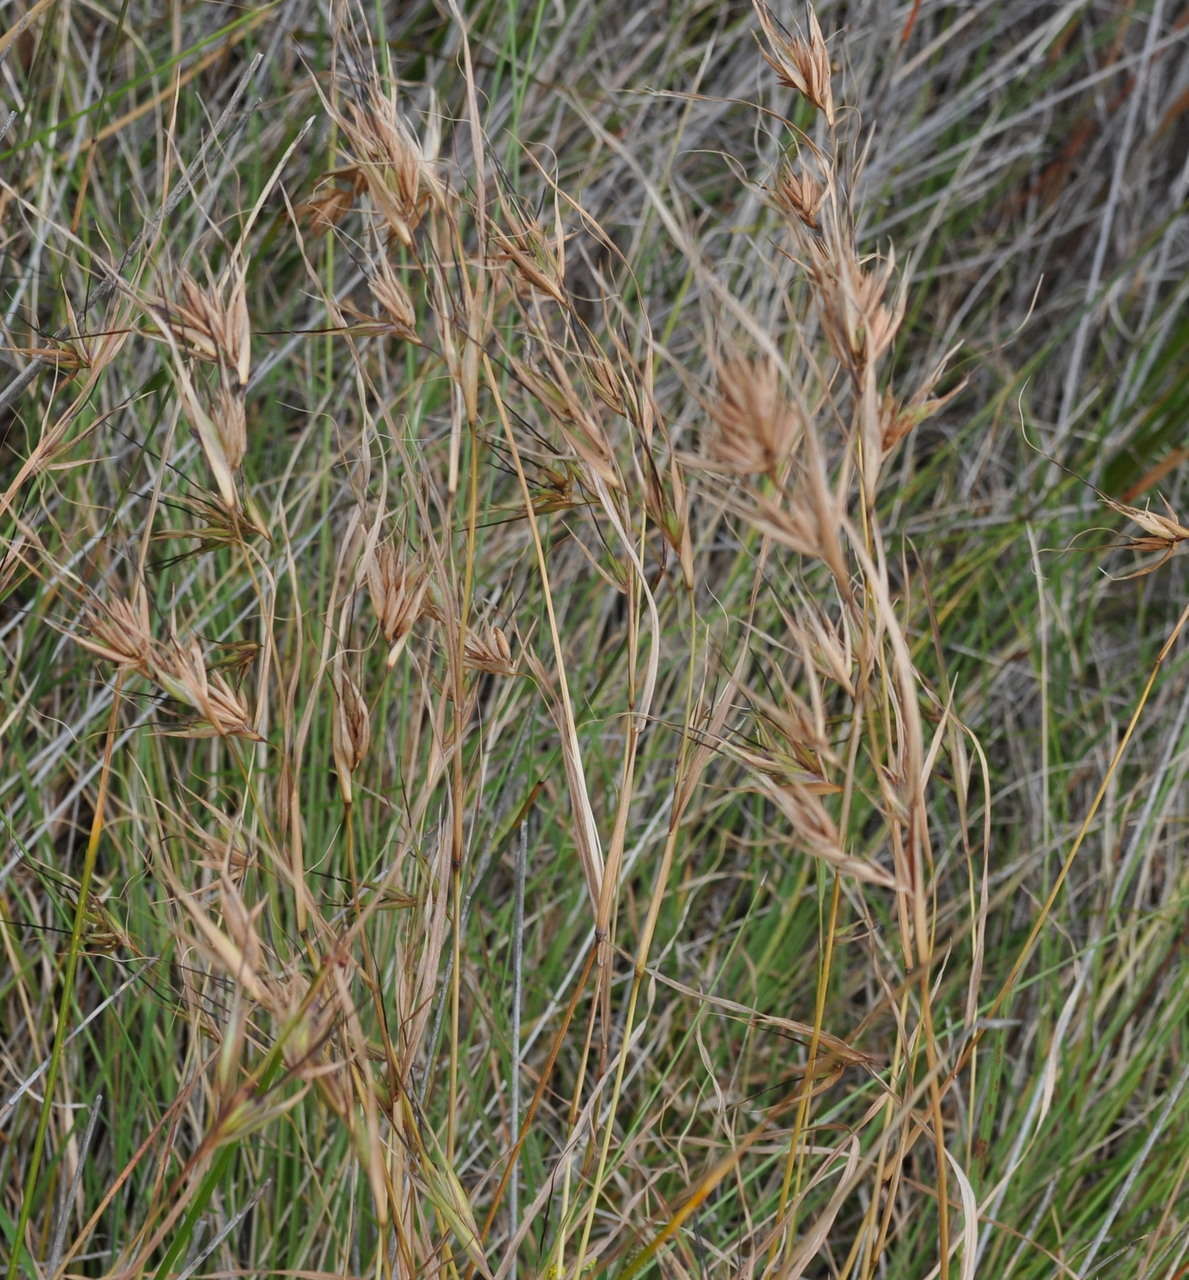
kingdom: Plantae
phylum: Tracheophyta
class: Liliopsida
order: Poales
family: Poaceae
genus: Themeda
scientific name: Themeda triandra
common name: Kangaroo grass
